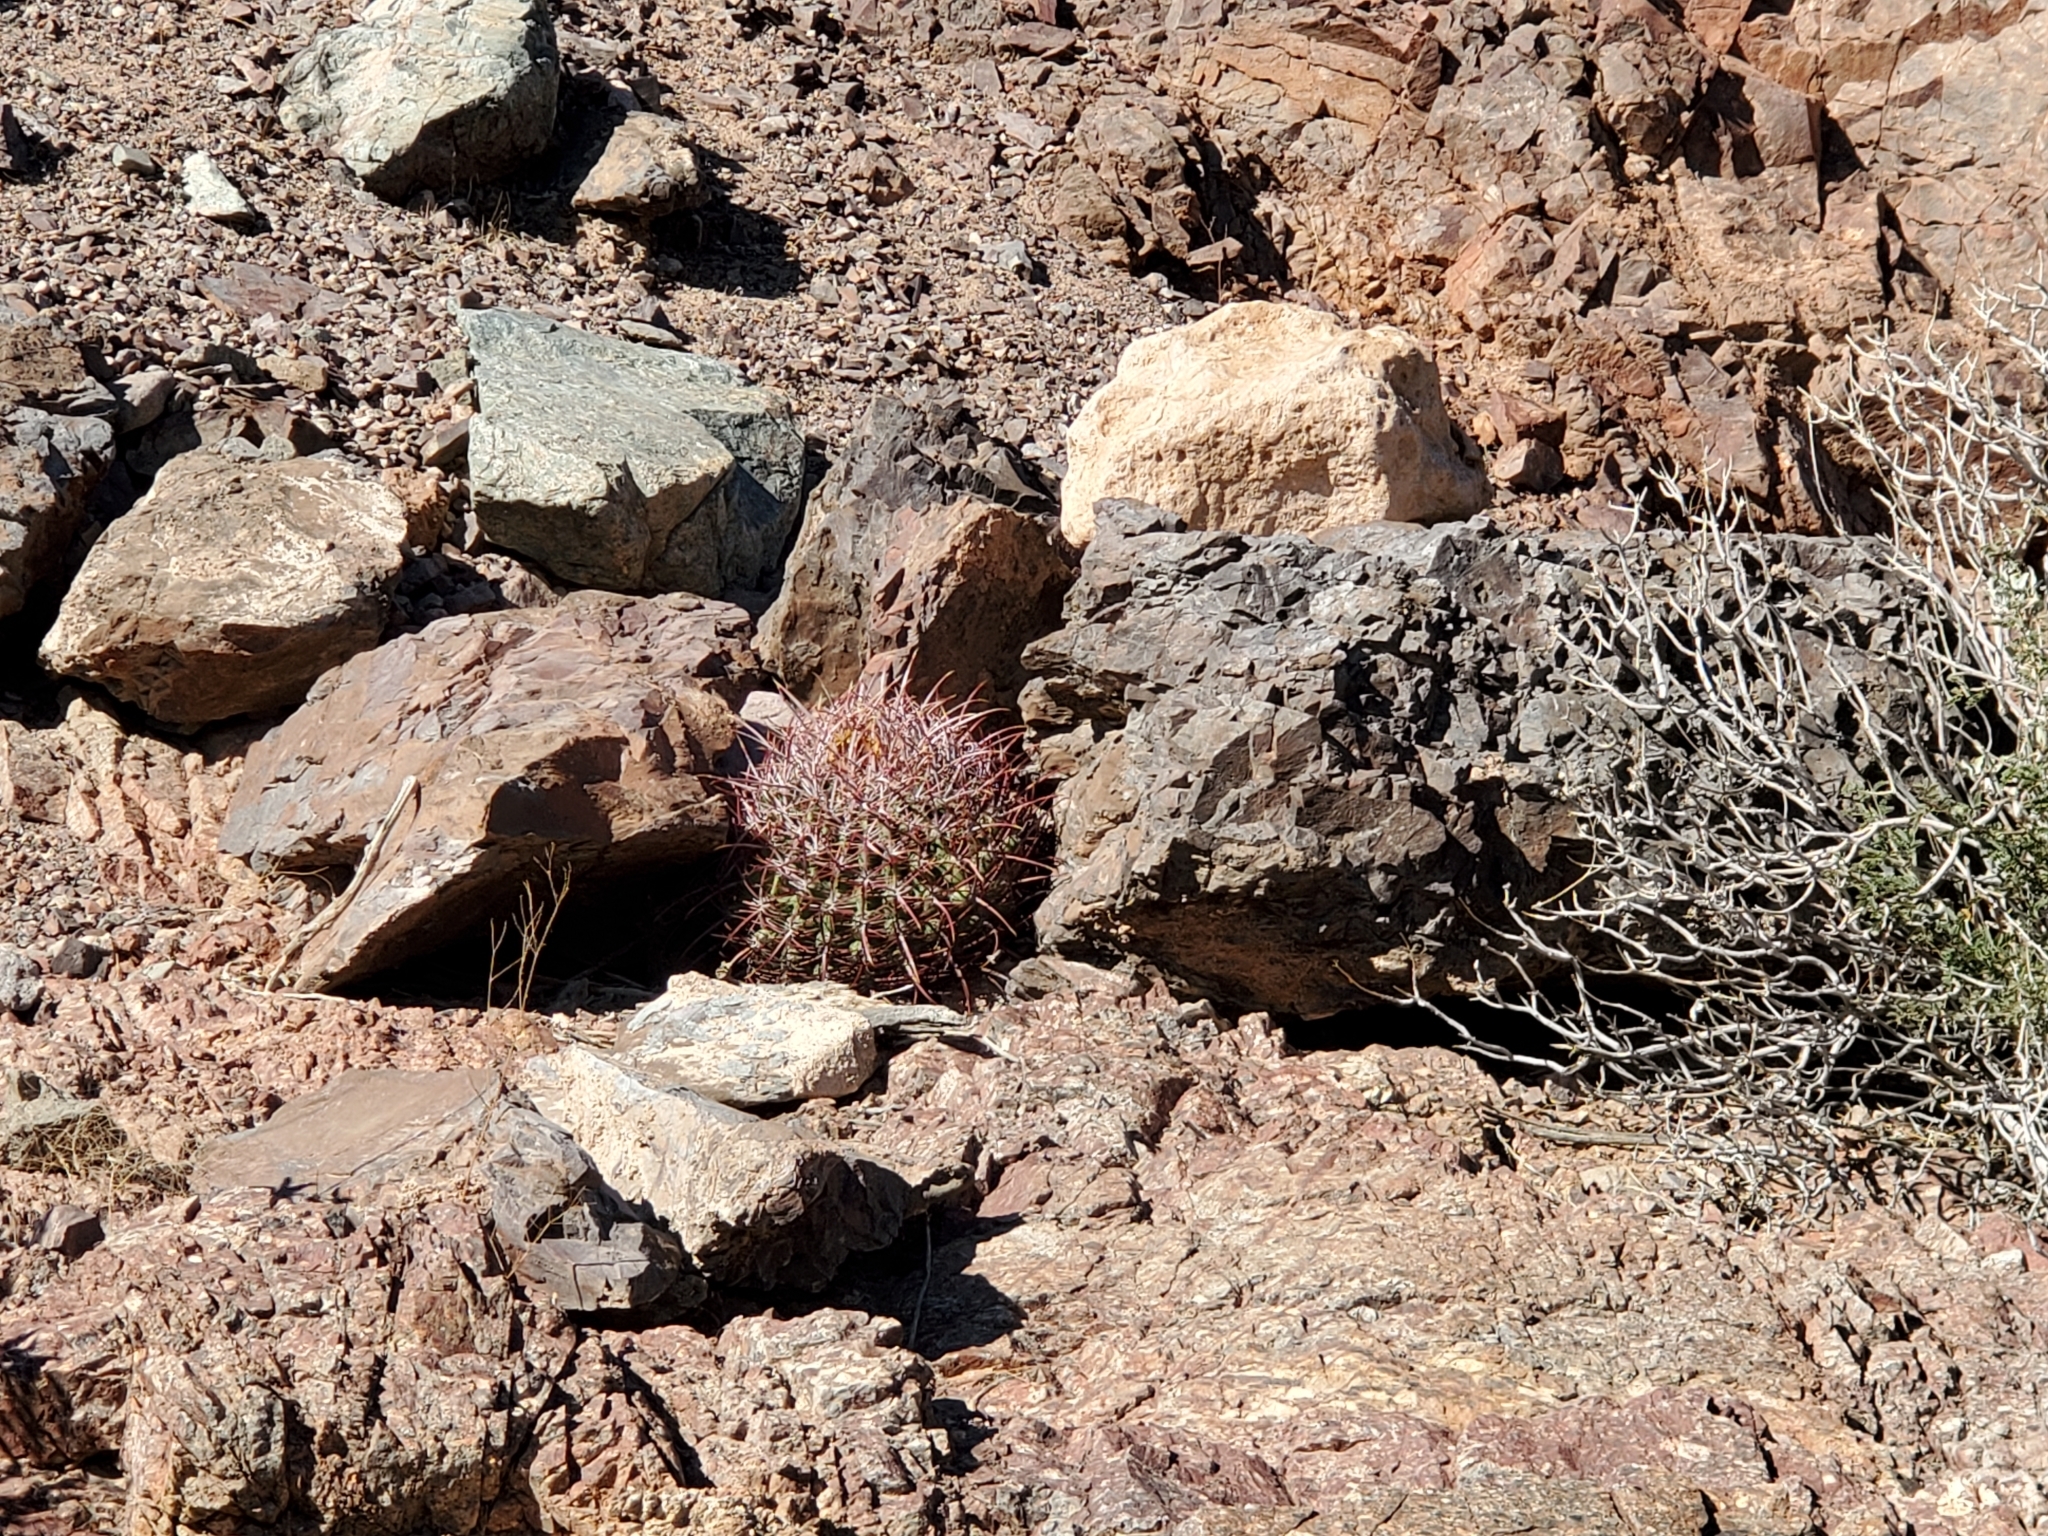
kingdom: Plantae
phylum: Tracheophyta
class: Magnoliopsida
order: Caryophyllales
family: Cactaceae
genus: Ferocactus
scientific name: Ferocactus cylindraceus
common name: California barrel cactus
